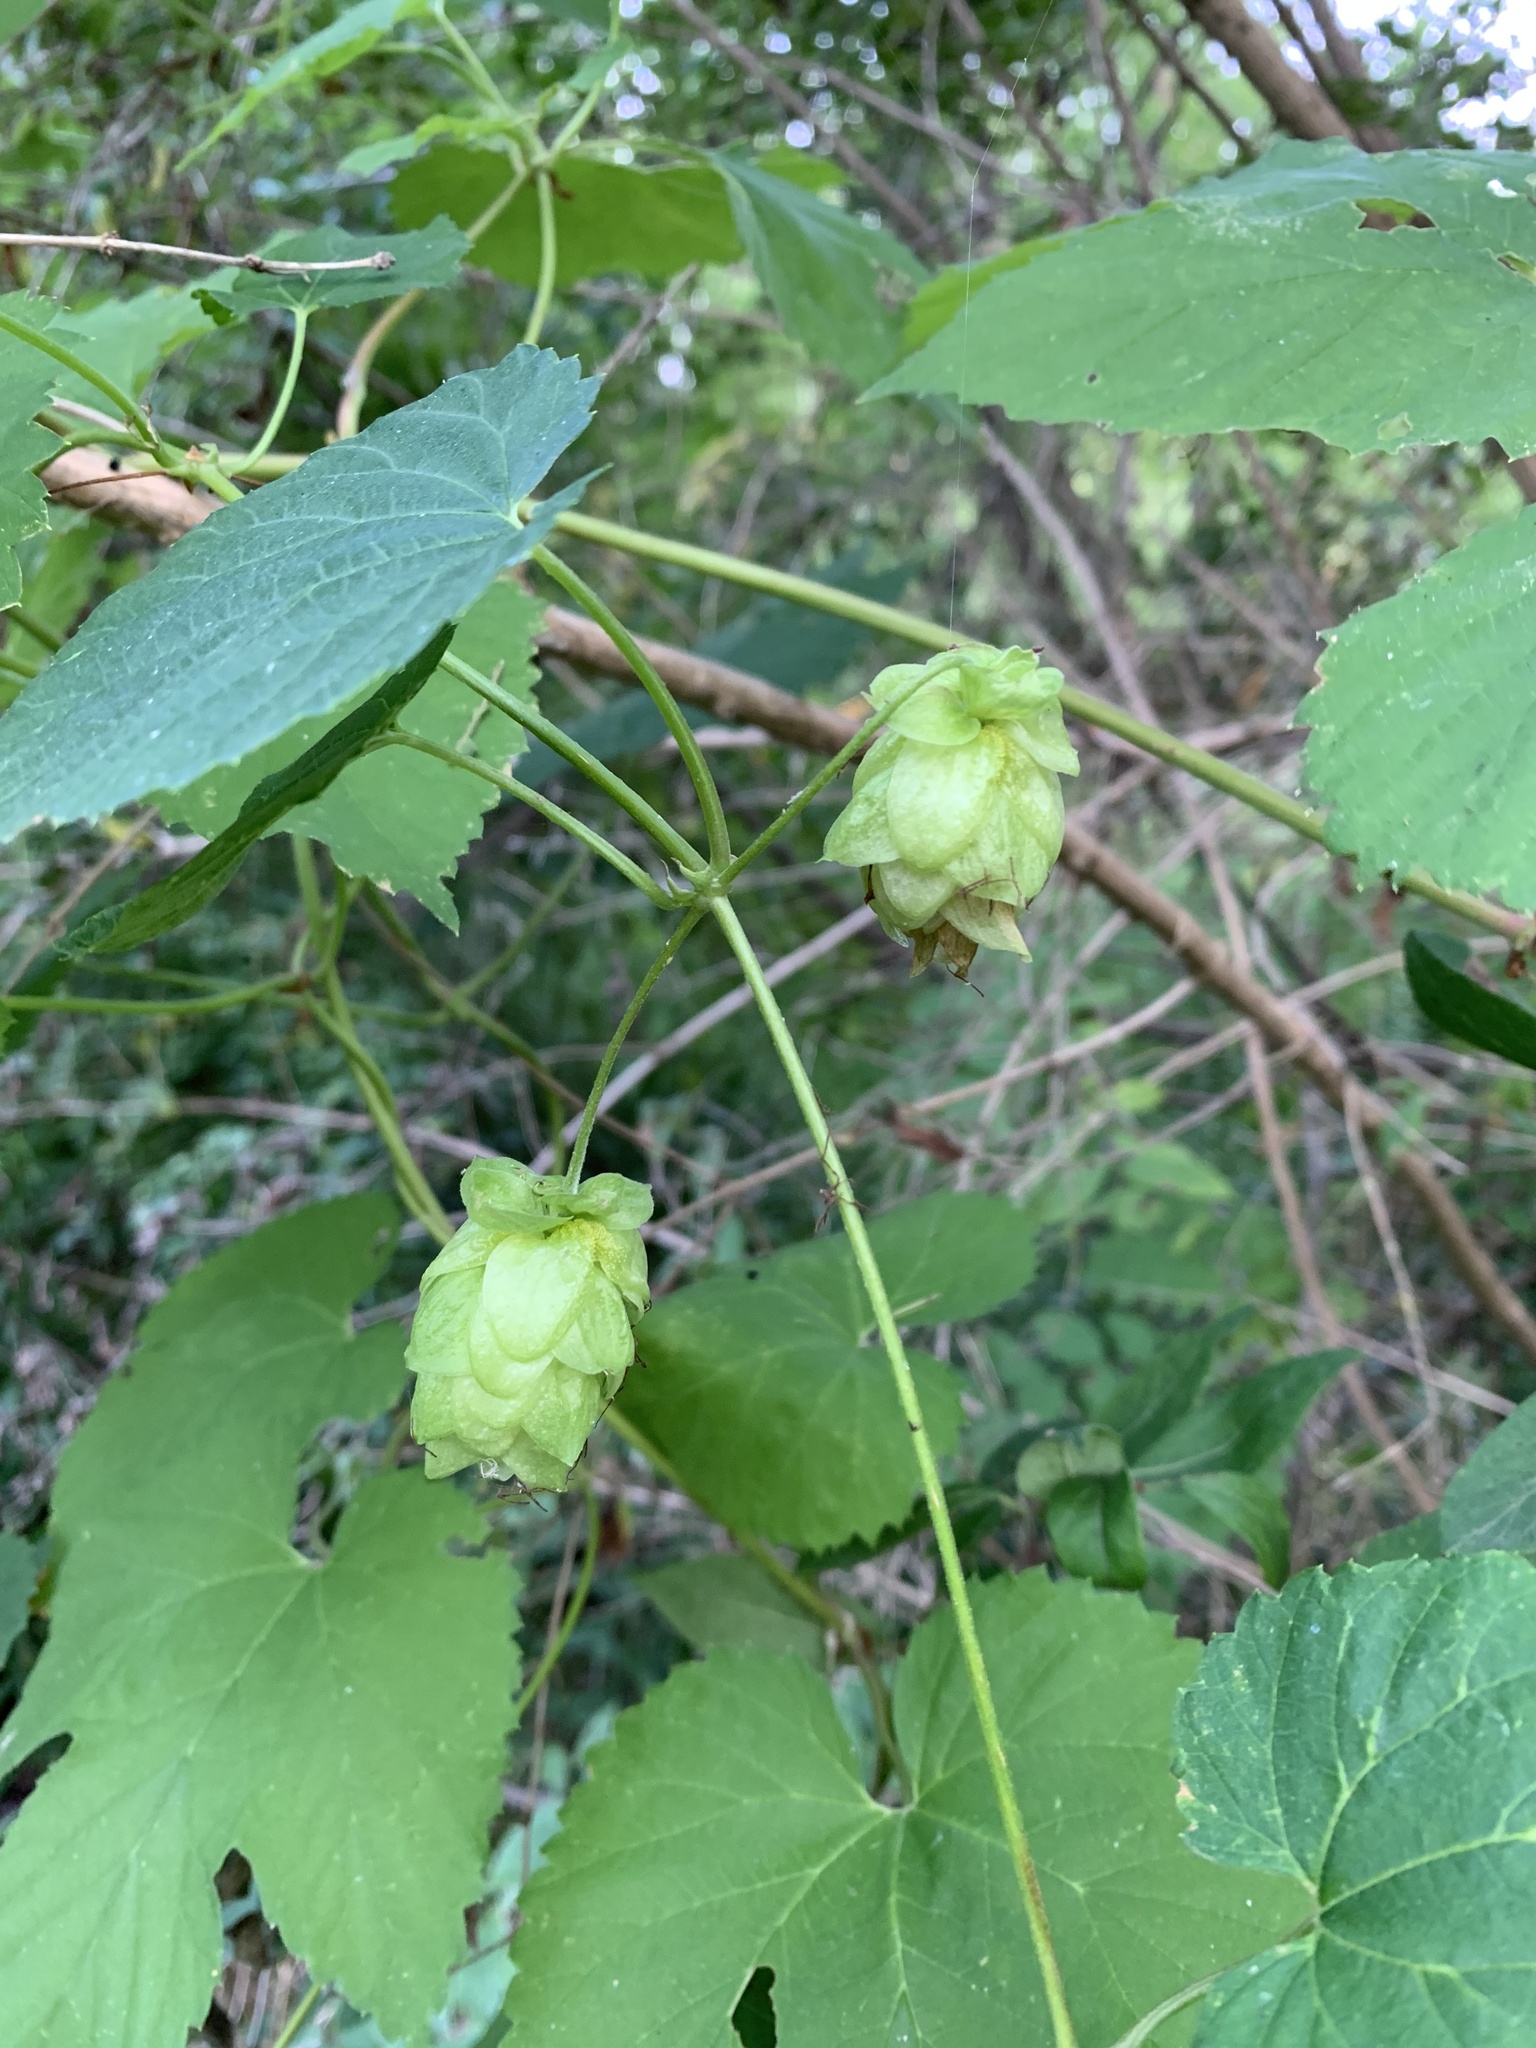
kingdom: Plantae
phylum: Tracheophyta
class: Magnoliopsida
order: Rosales
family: Cannabaceae
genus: Humulus
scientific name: Humulus lupulus
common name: Hop
